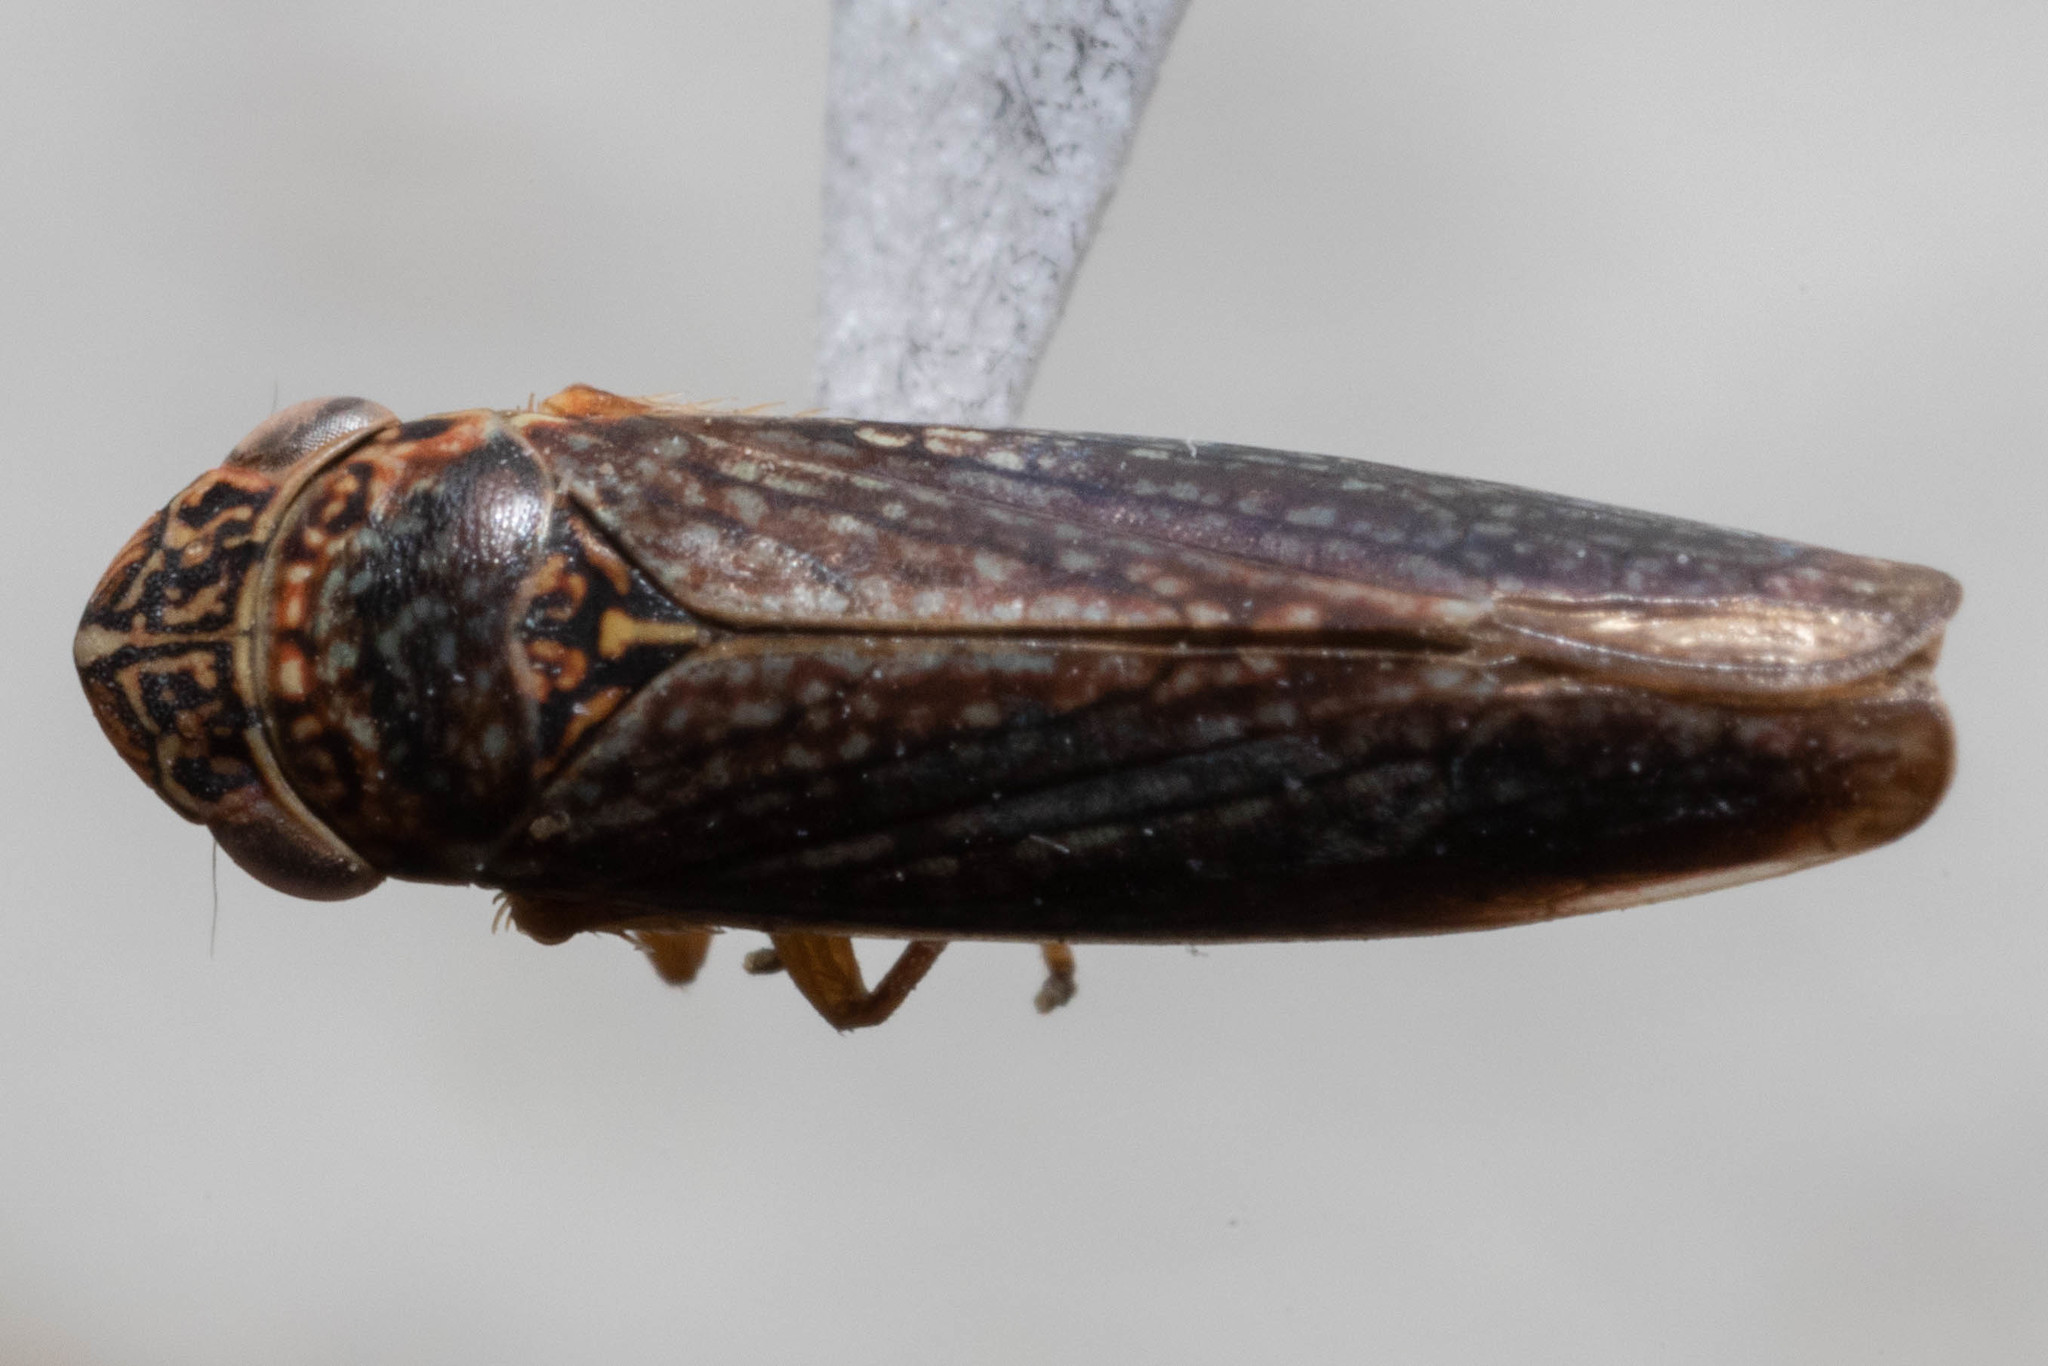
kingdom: Animalia
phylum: Arthropoda
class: Insecta
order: Hemiptera
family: Cicadellidae
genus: Graphocephala
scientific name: Graphocephala confluens
